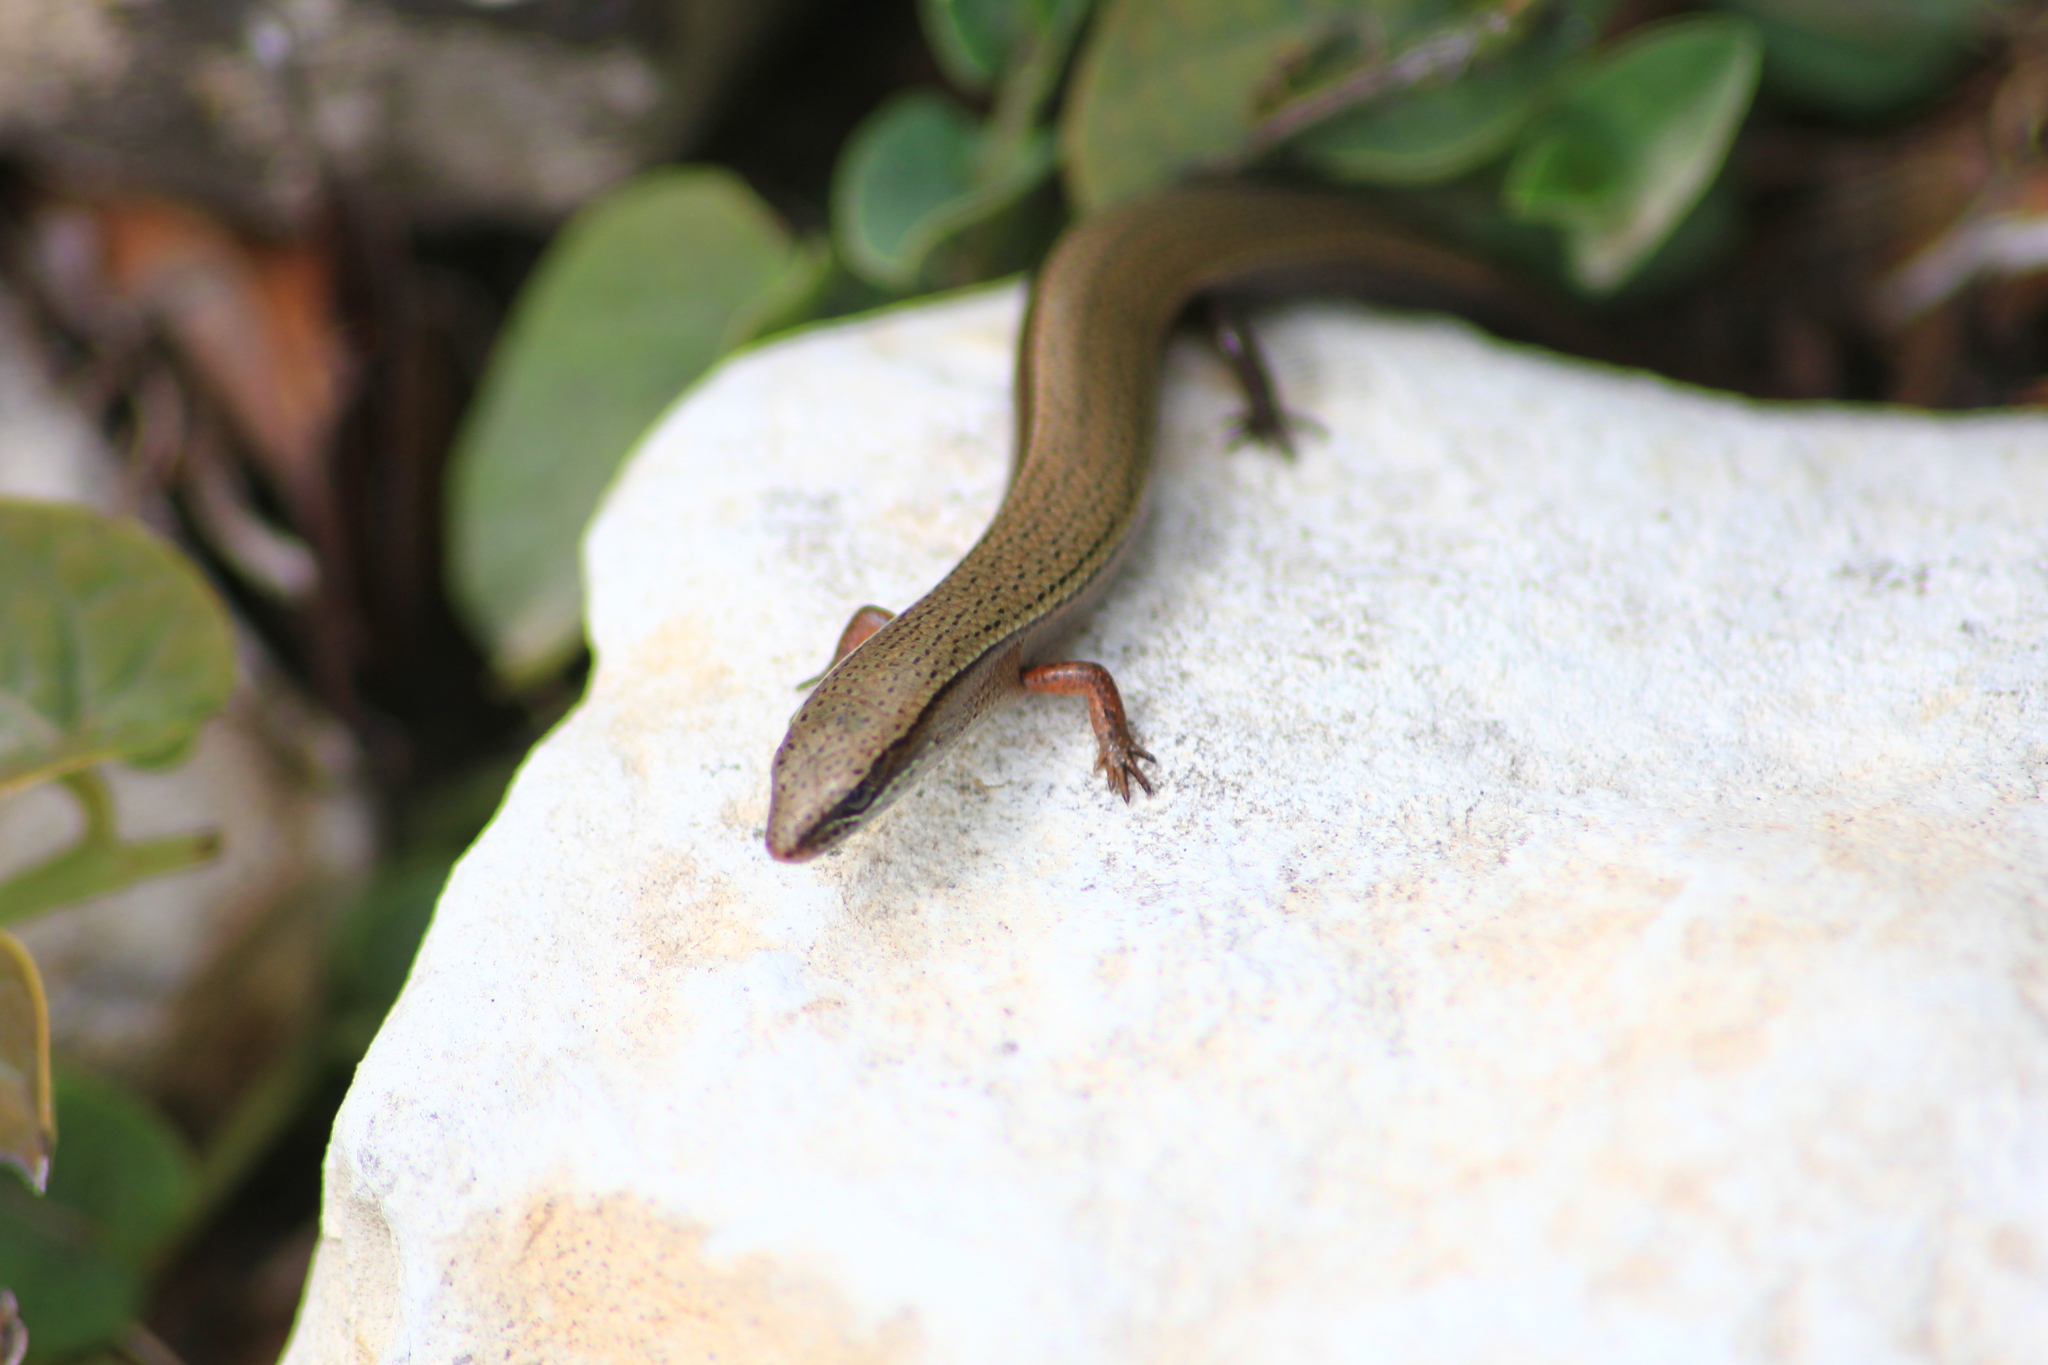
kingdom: Animalia
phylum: Chordata
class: Squamata
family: Scincidae
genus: Ablepharus
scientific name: Ablepharus budaki
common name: Budak’s snake-eyed skink
